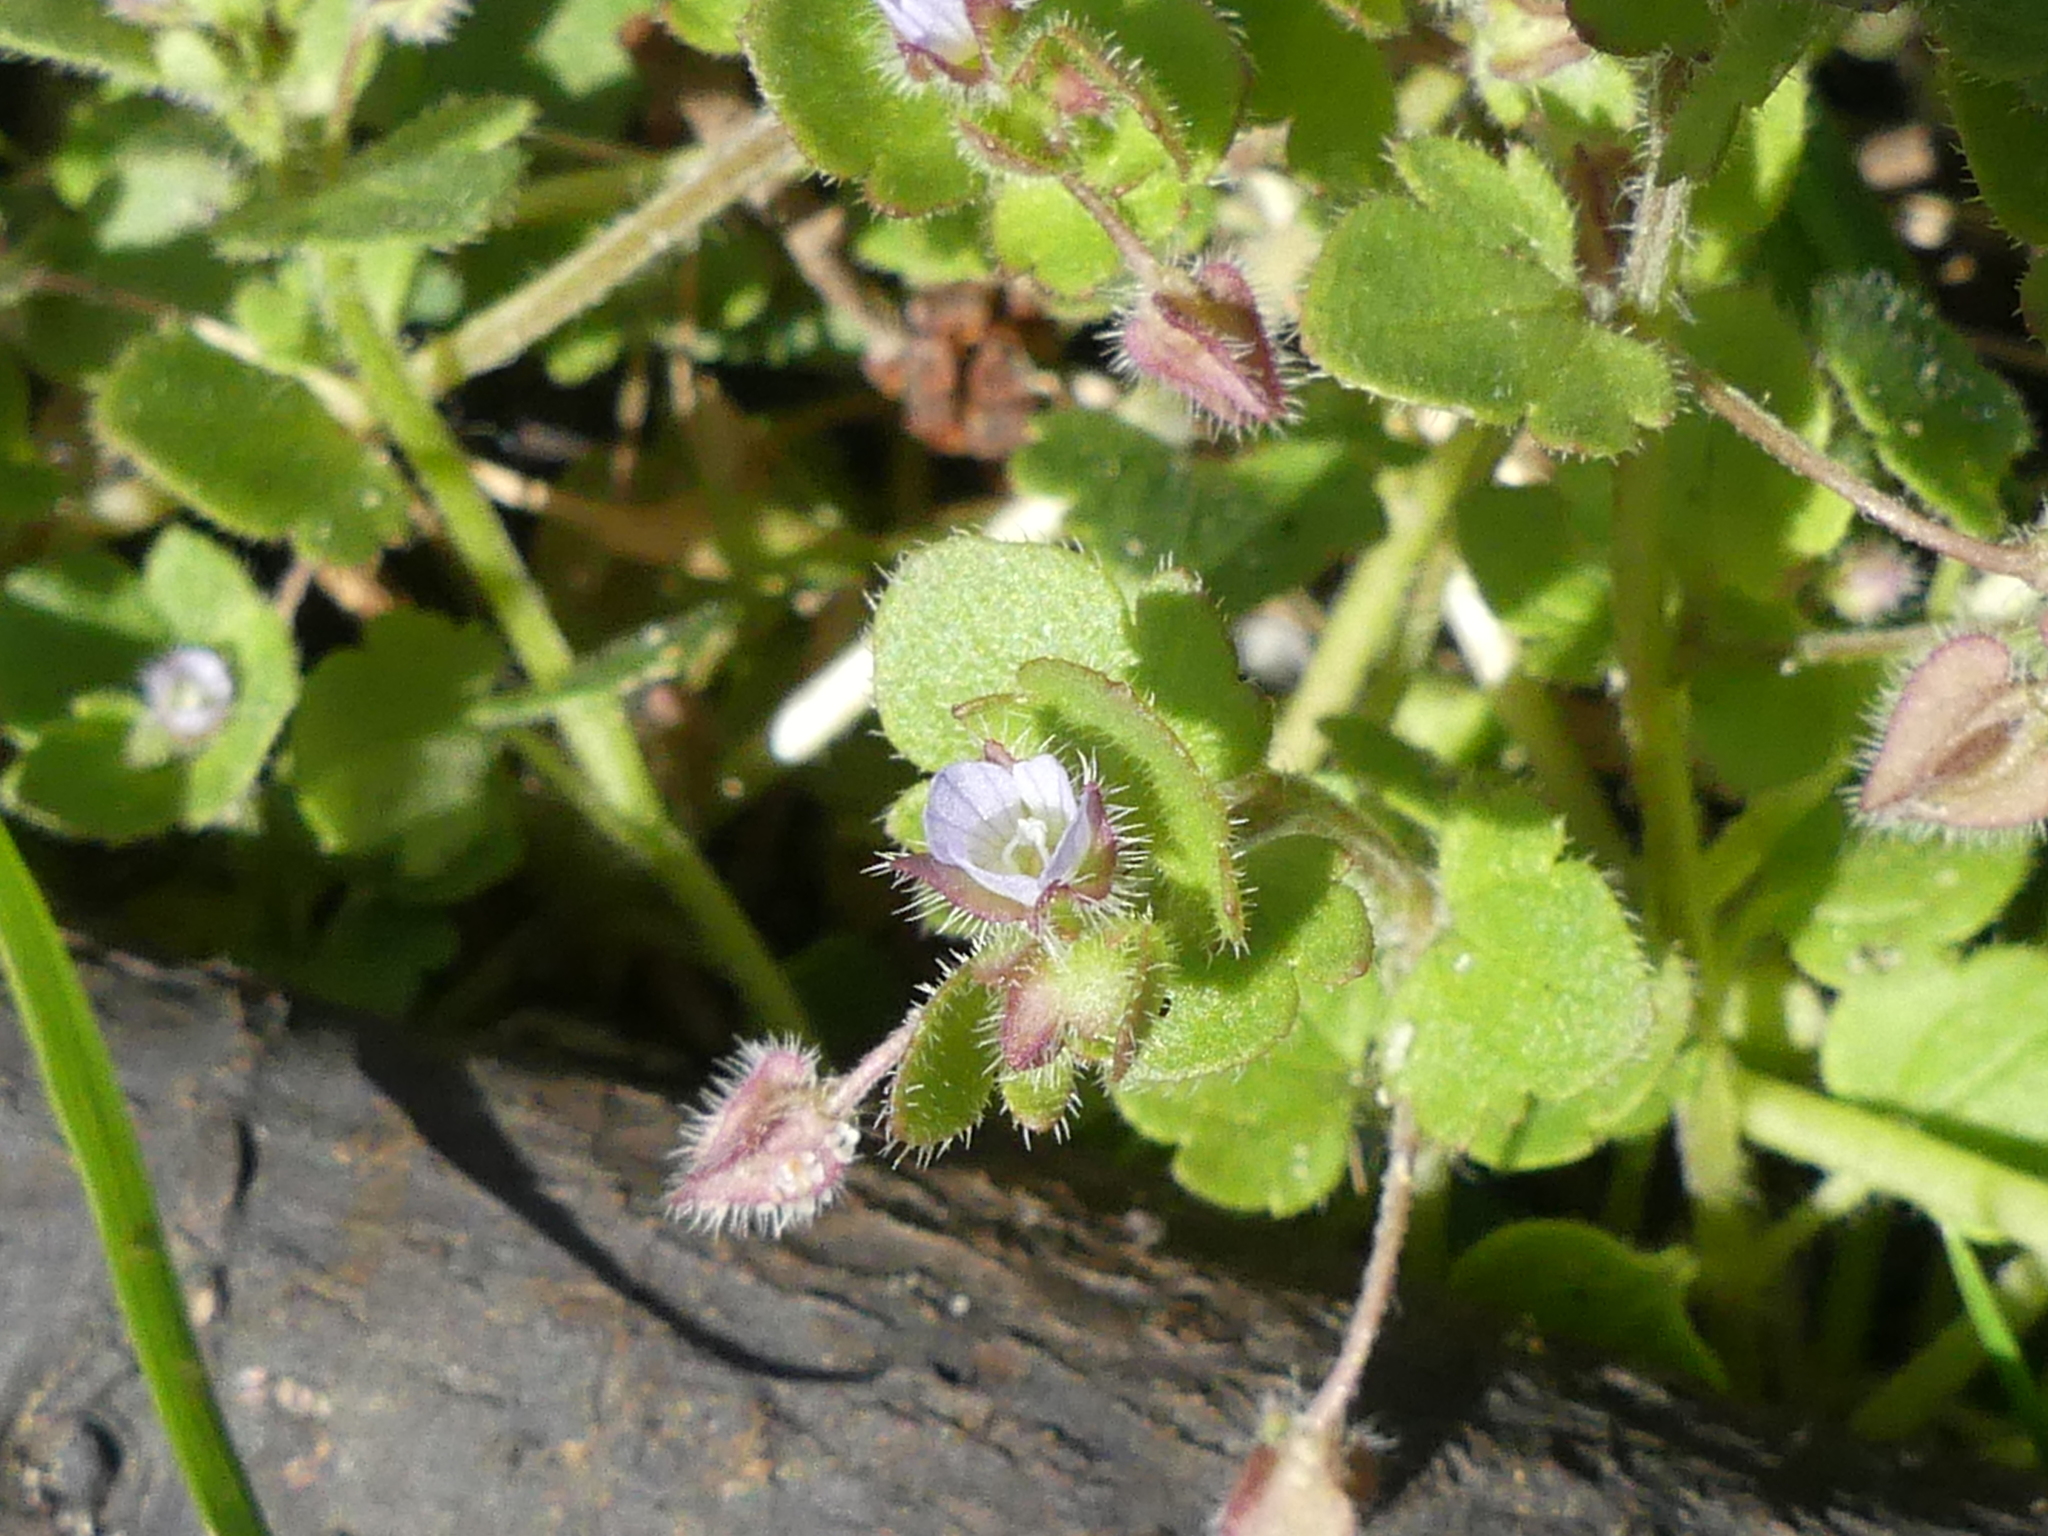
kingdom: Plantae
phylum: Tracheophyta
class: Magnoliopsida
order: Lamiales
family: Plantaginaceae
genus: Veronica
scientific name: Veronica sublobata
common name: False ivy-leaved speedwell
